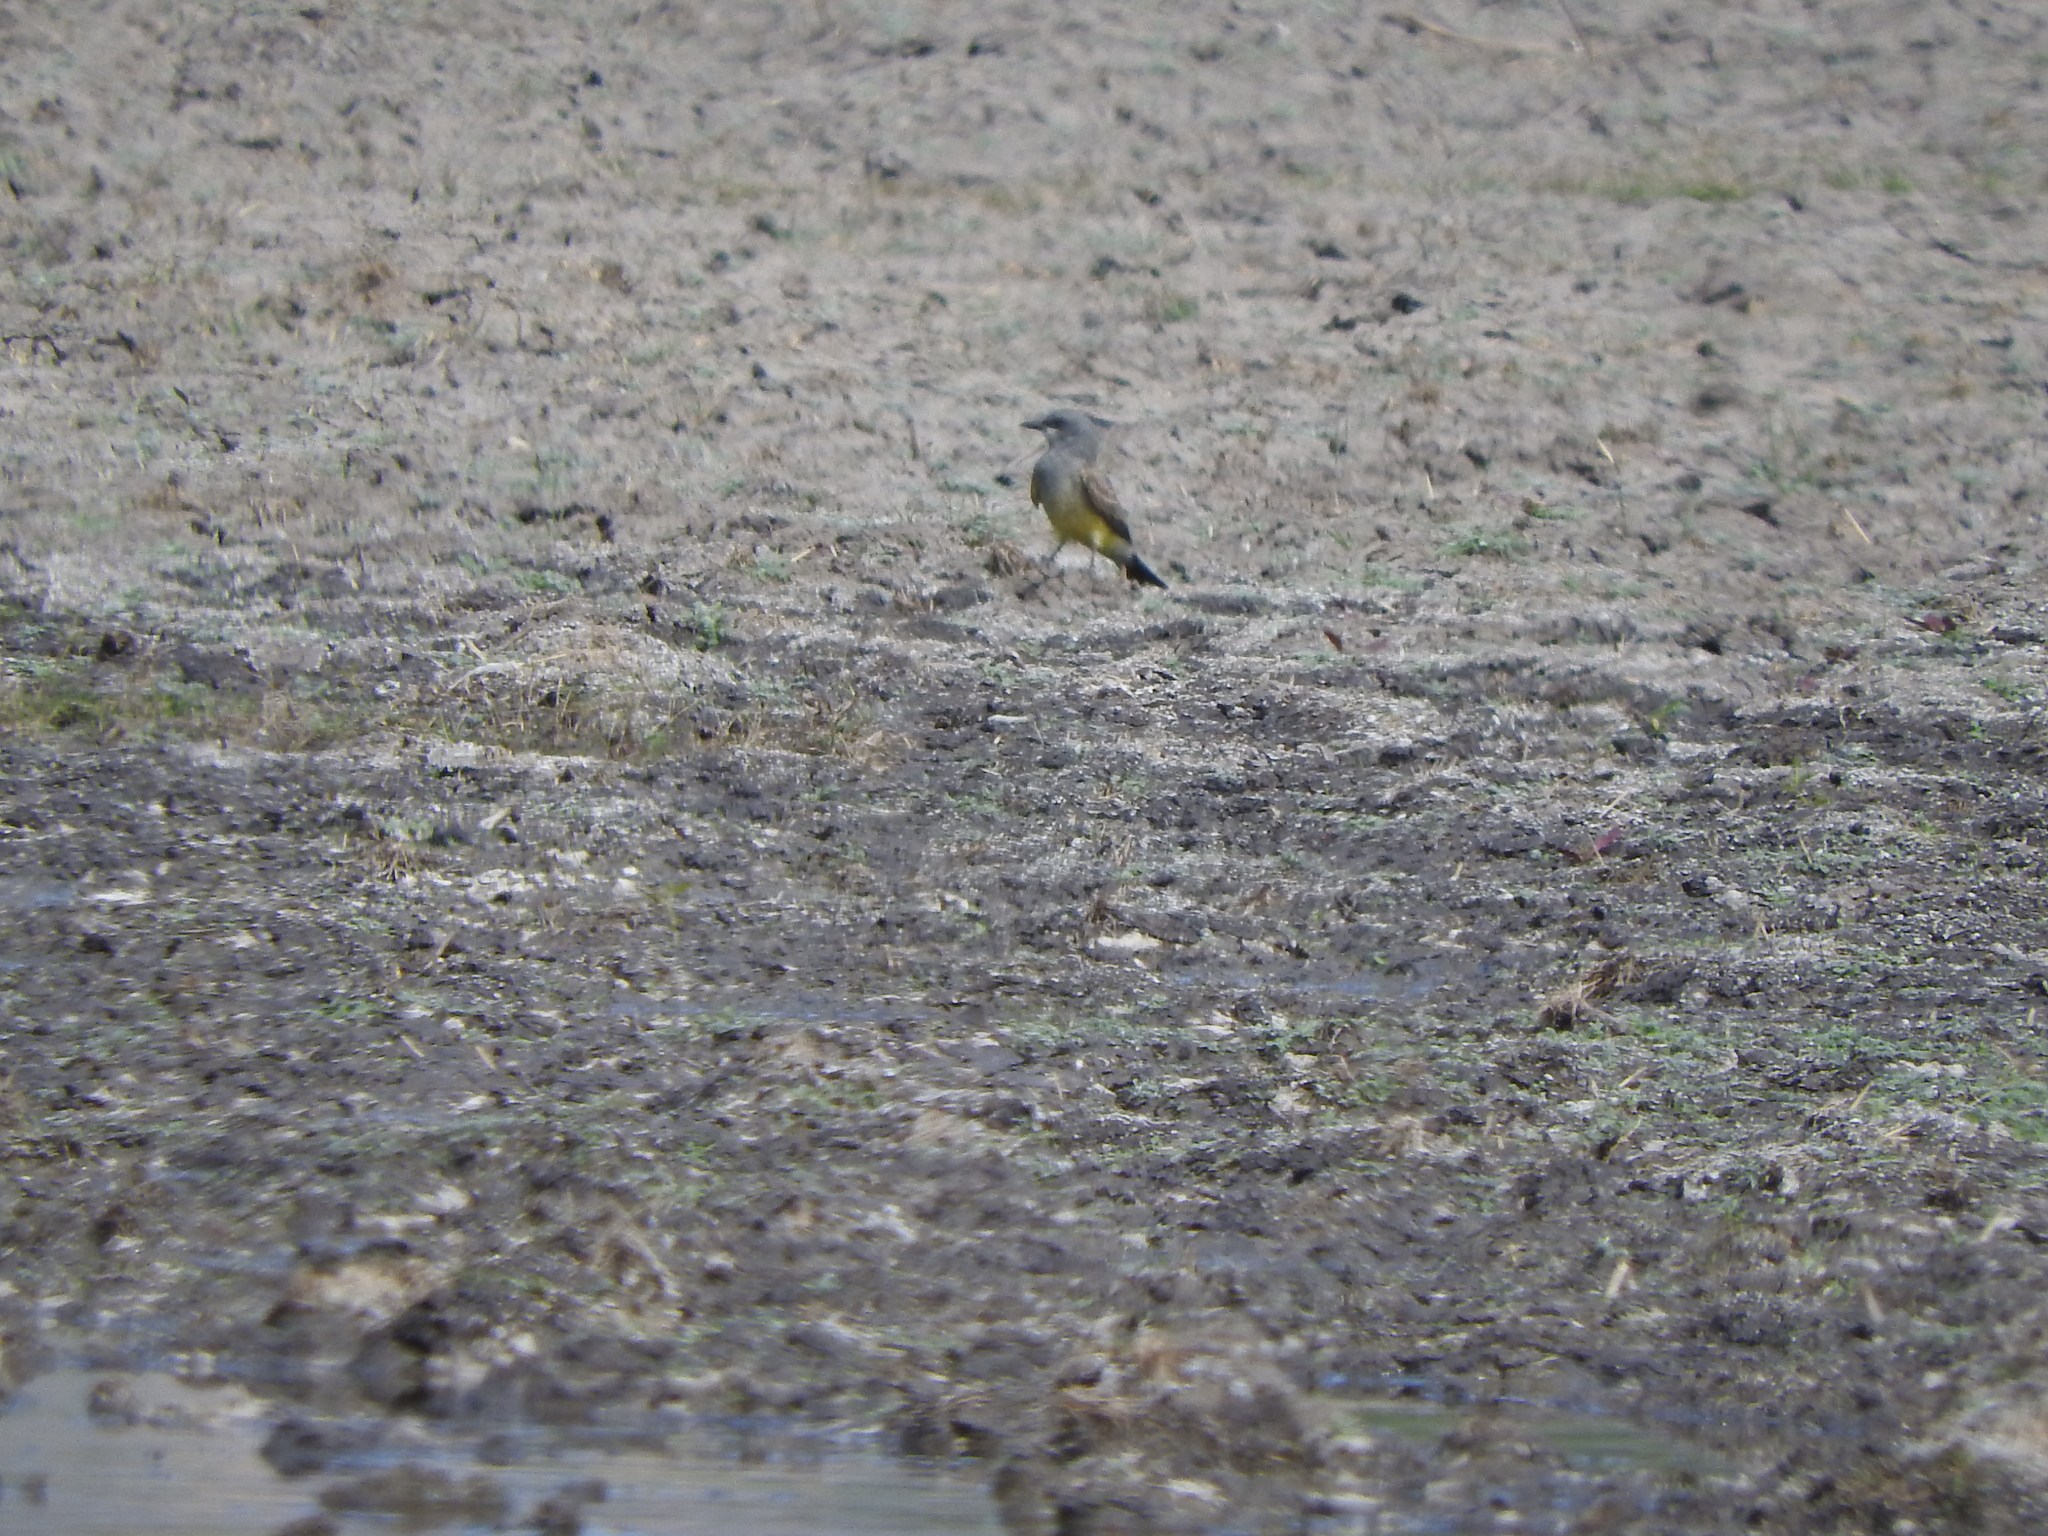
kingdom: Animalia
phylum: Chordata
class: Aves
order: Passeriformes
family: Tyrannidae
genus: Tyrannus
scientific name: Tyrannus vociferans
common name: Cassin's kingbird
